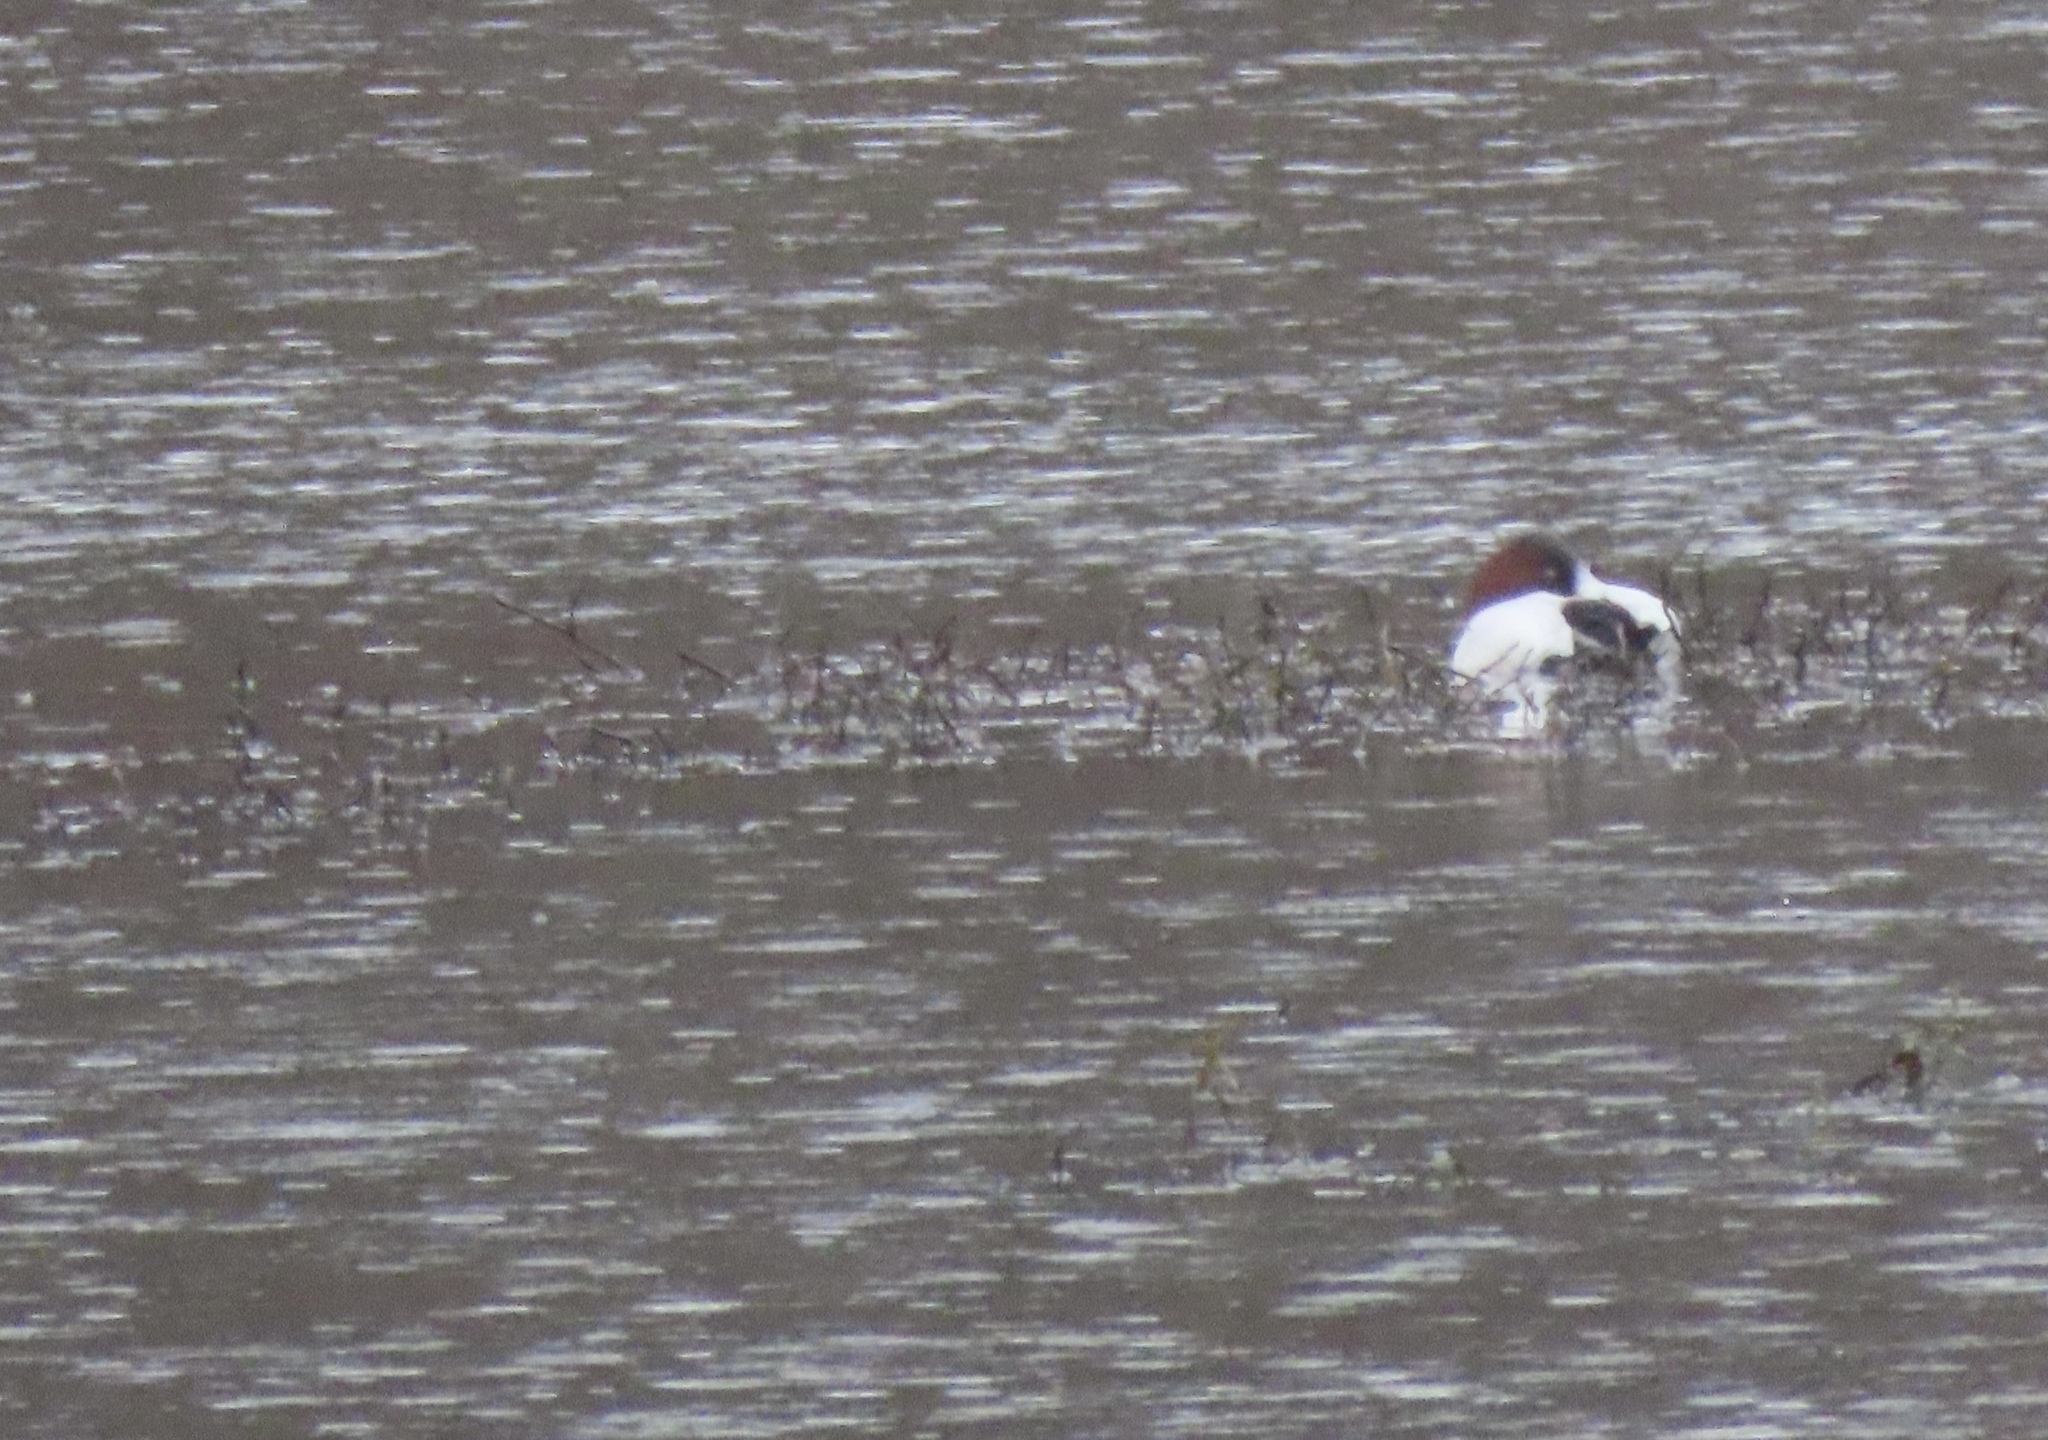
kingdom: Animalia
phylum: Chordata
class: Aves
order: Anseriformes
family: Anatidae
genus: Aythya
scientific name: Aythya valisineria
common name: Canvasback
